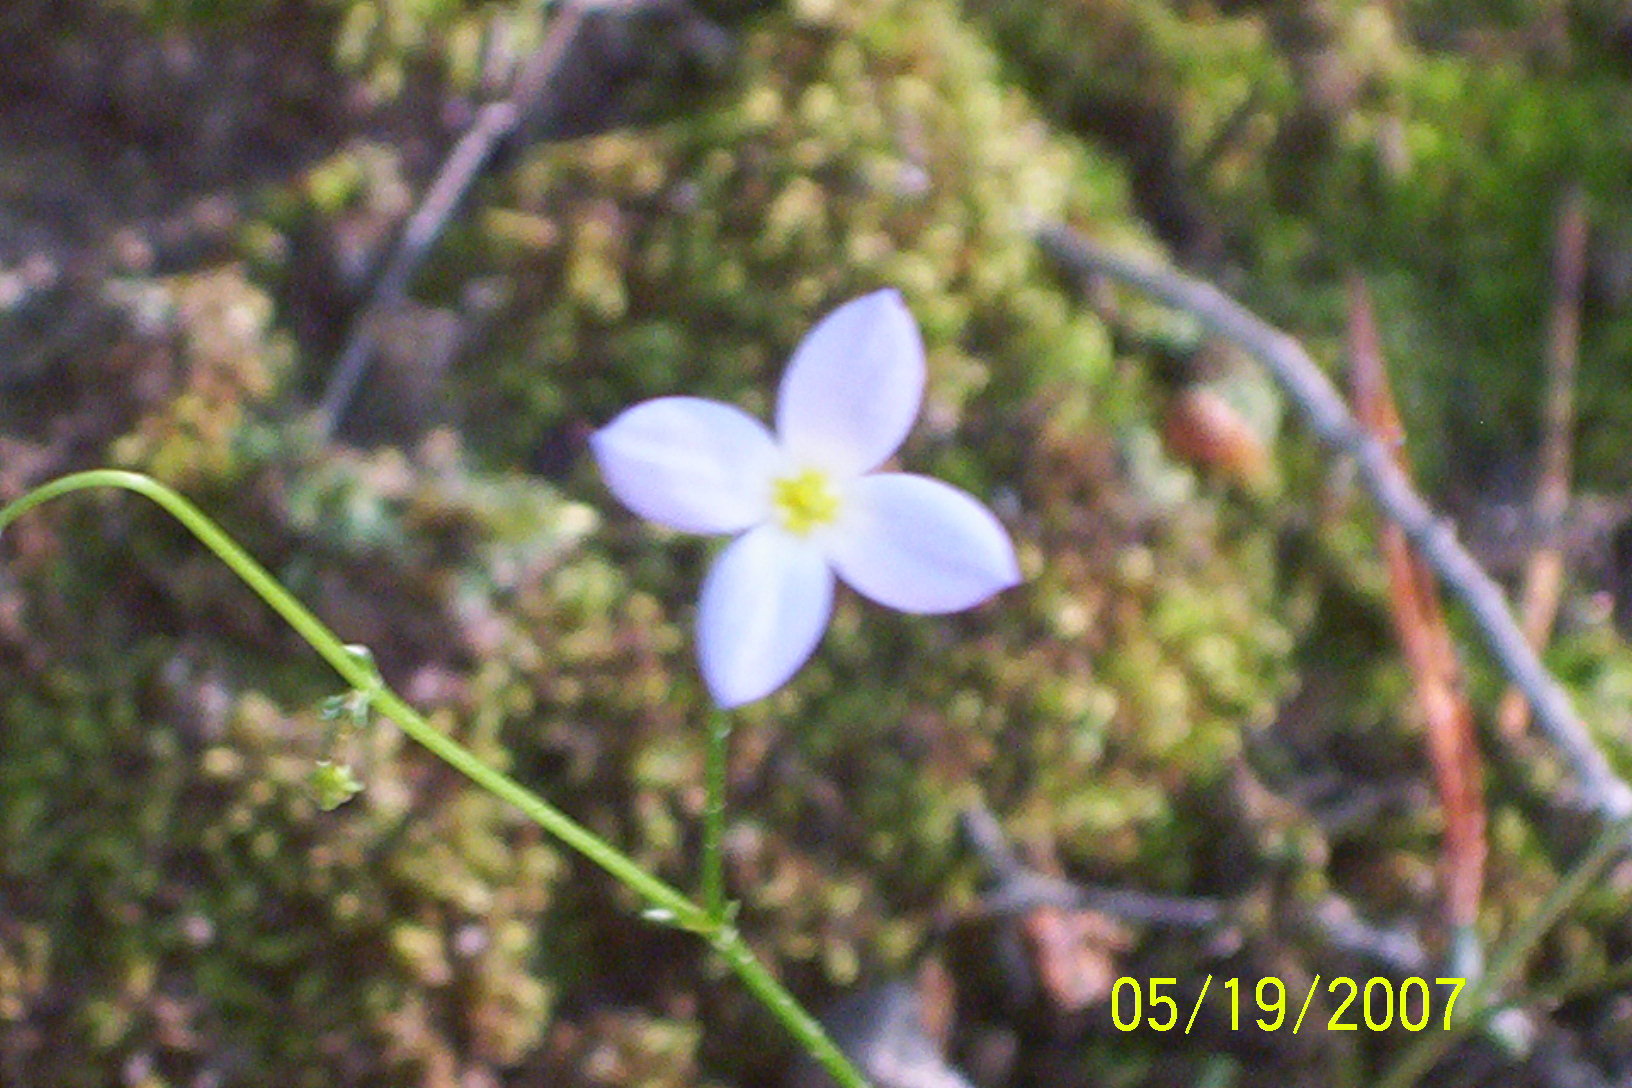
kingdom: Plantae
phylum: Tracheophyta
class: Magnoliopsida
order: Gentianales
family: Rubiaceae
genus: Houstonia
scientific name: Houstonia caerulea
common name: Bluets
